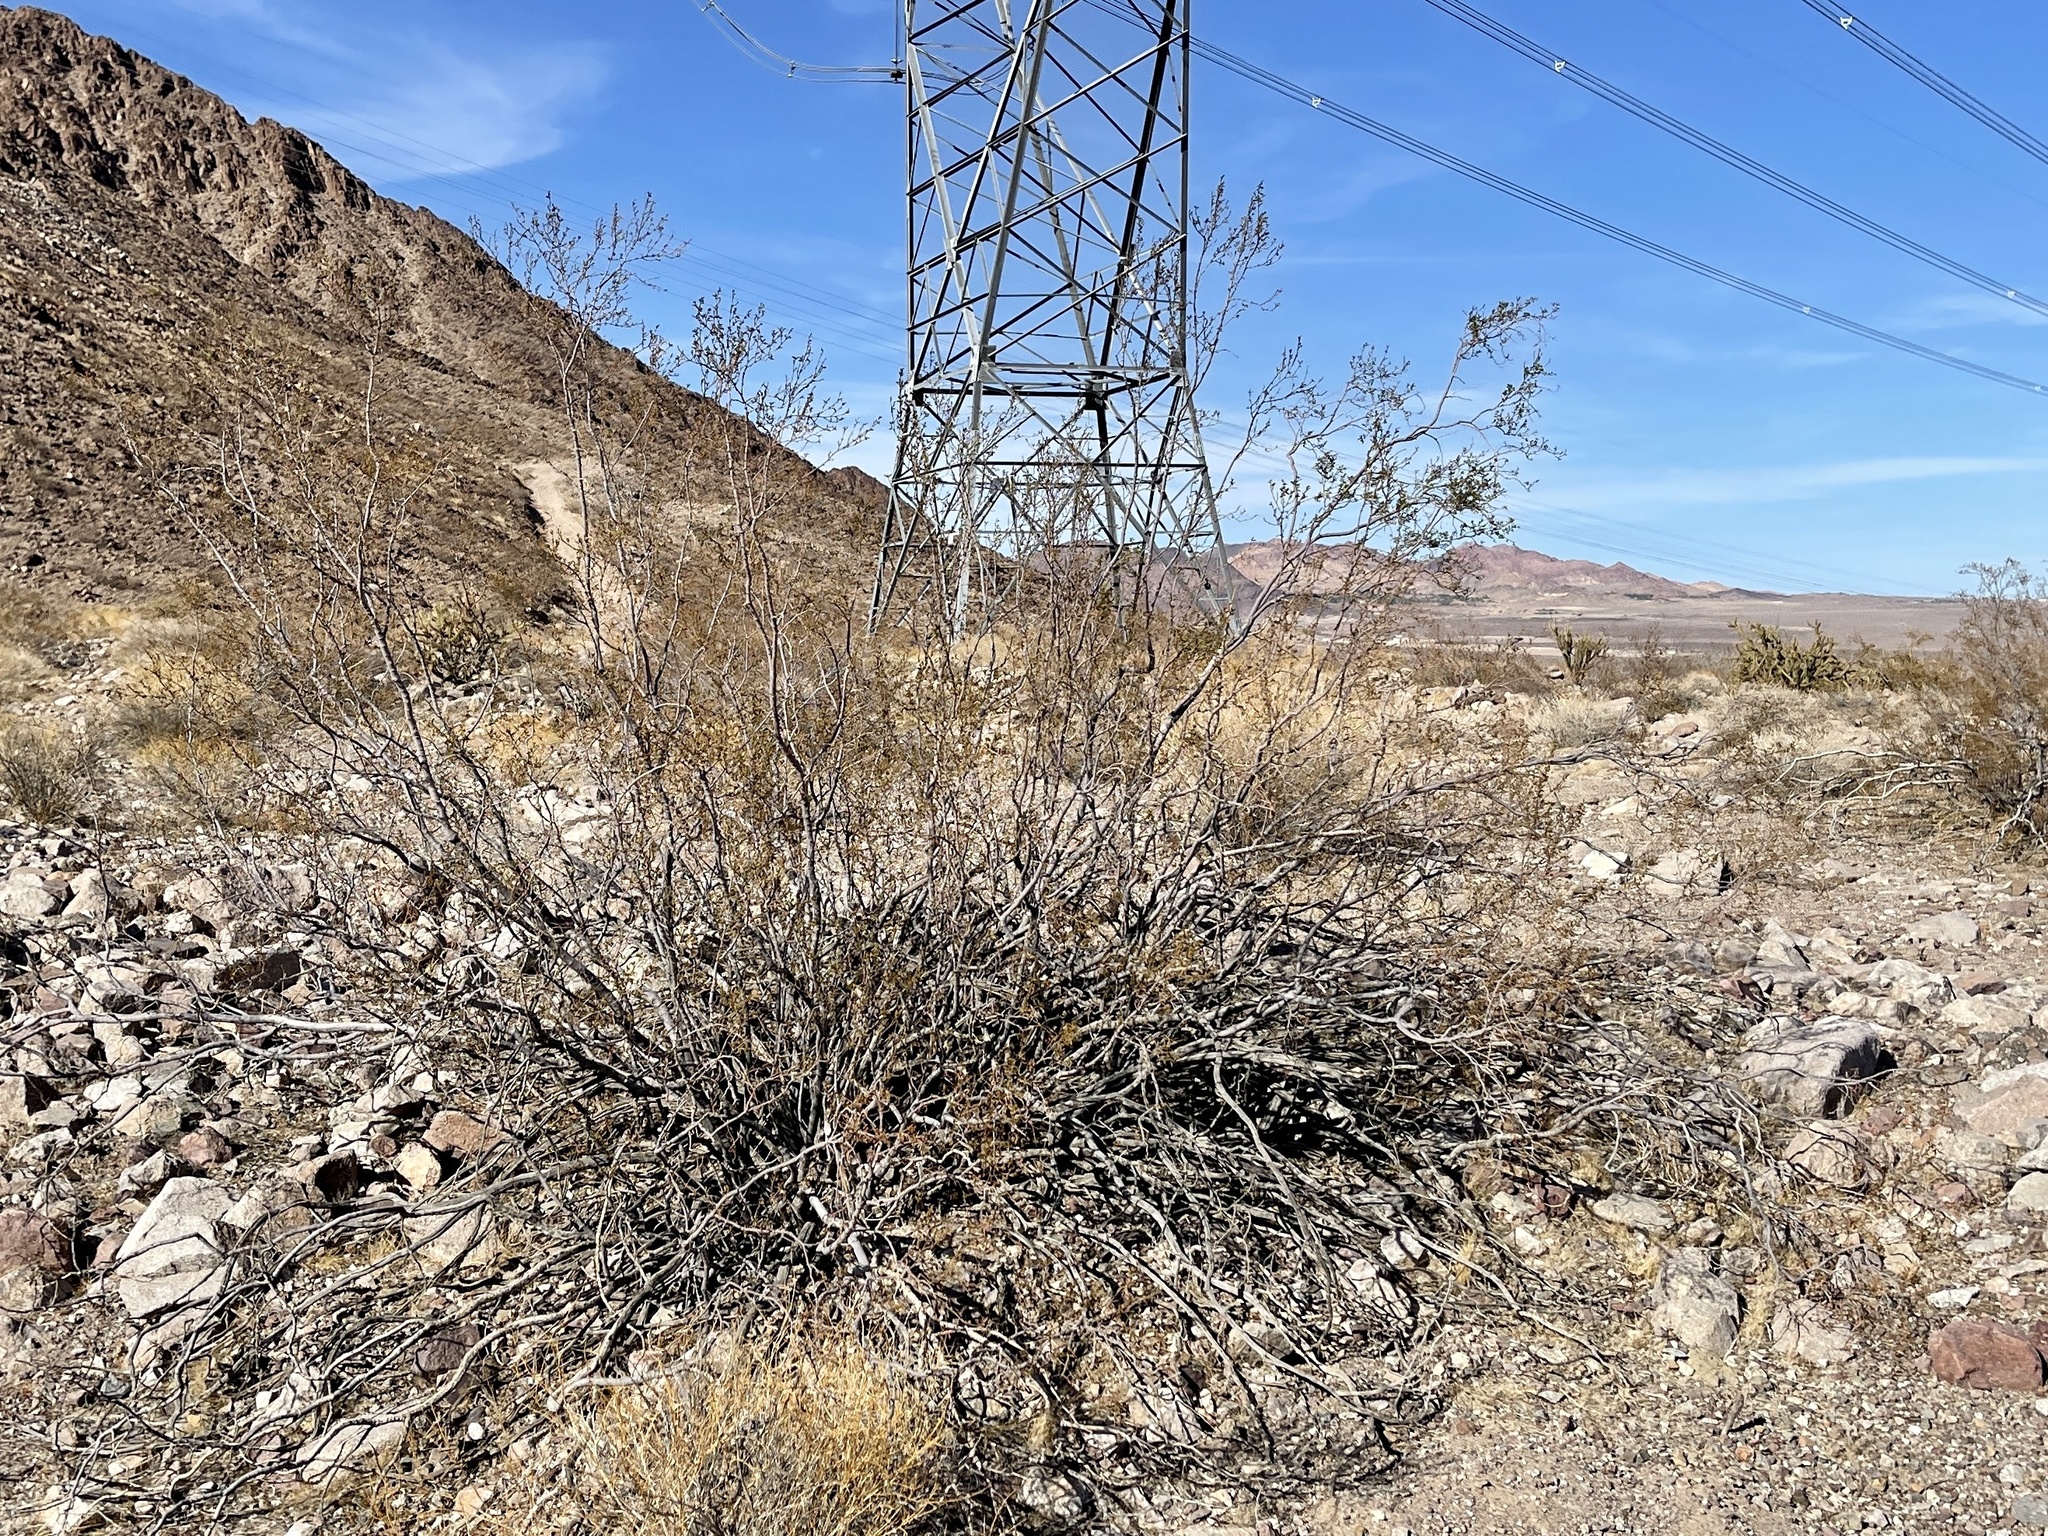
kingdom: Plantae
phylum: Tracheophyta
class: Magnoliopsida
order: Zygophyllales
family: Zygophyllaceae
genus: Larrea
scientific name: Larrea tridentata
